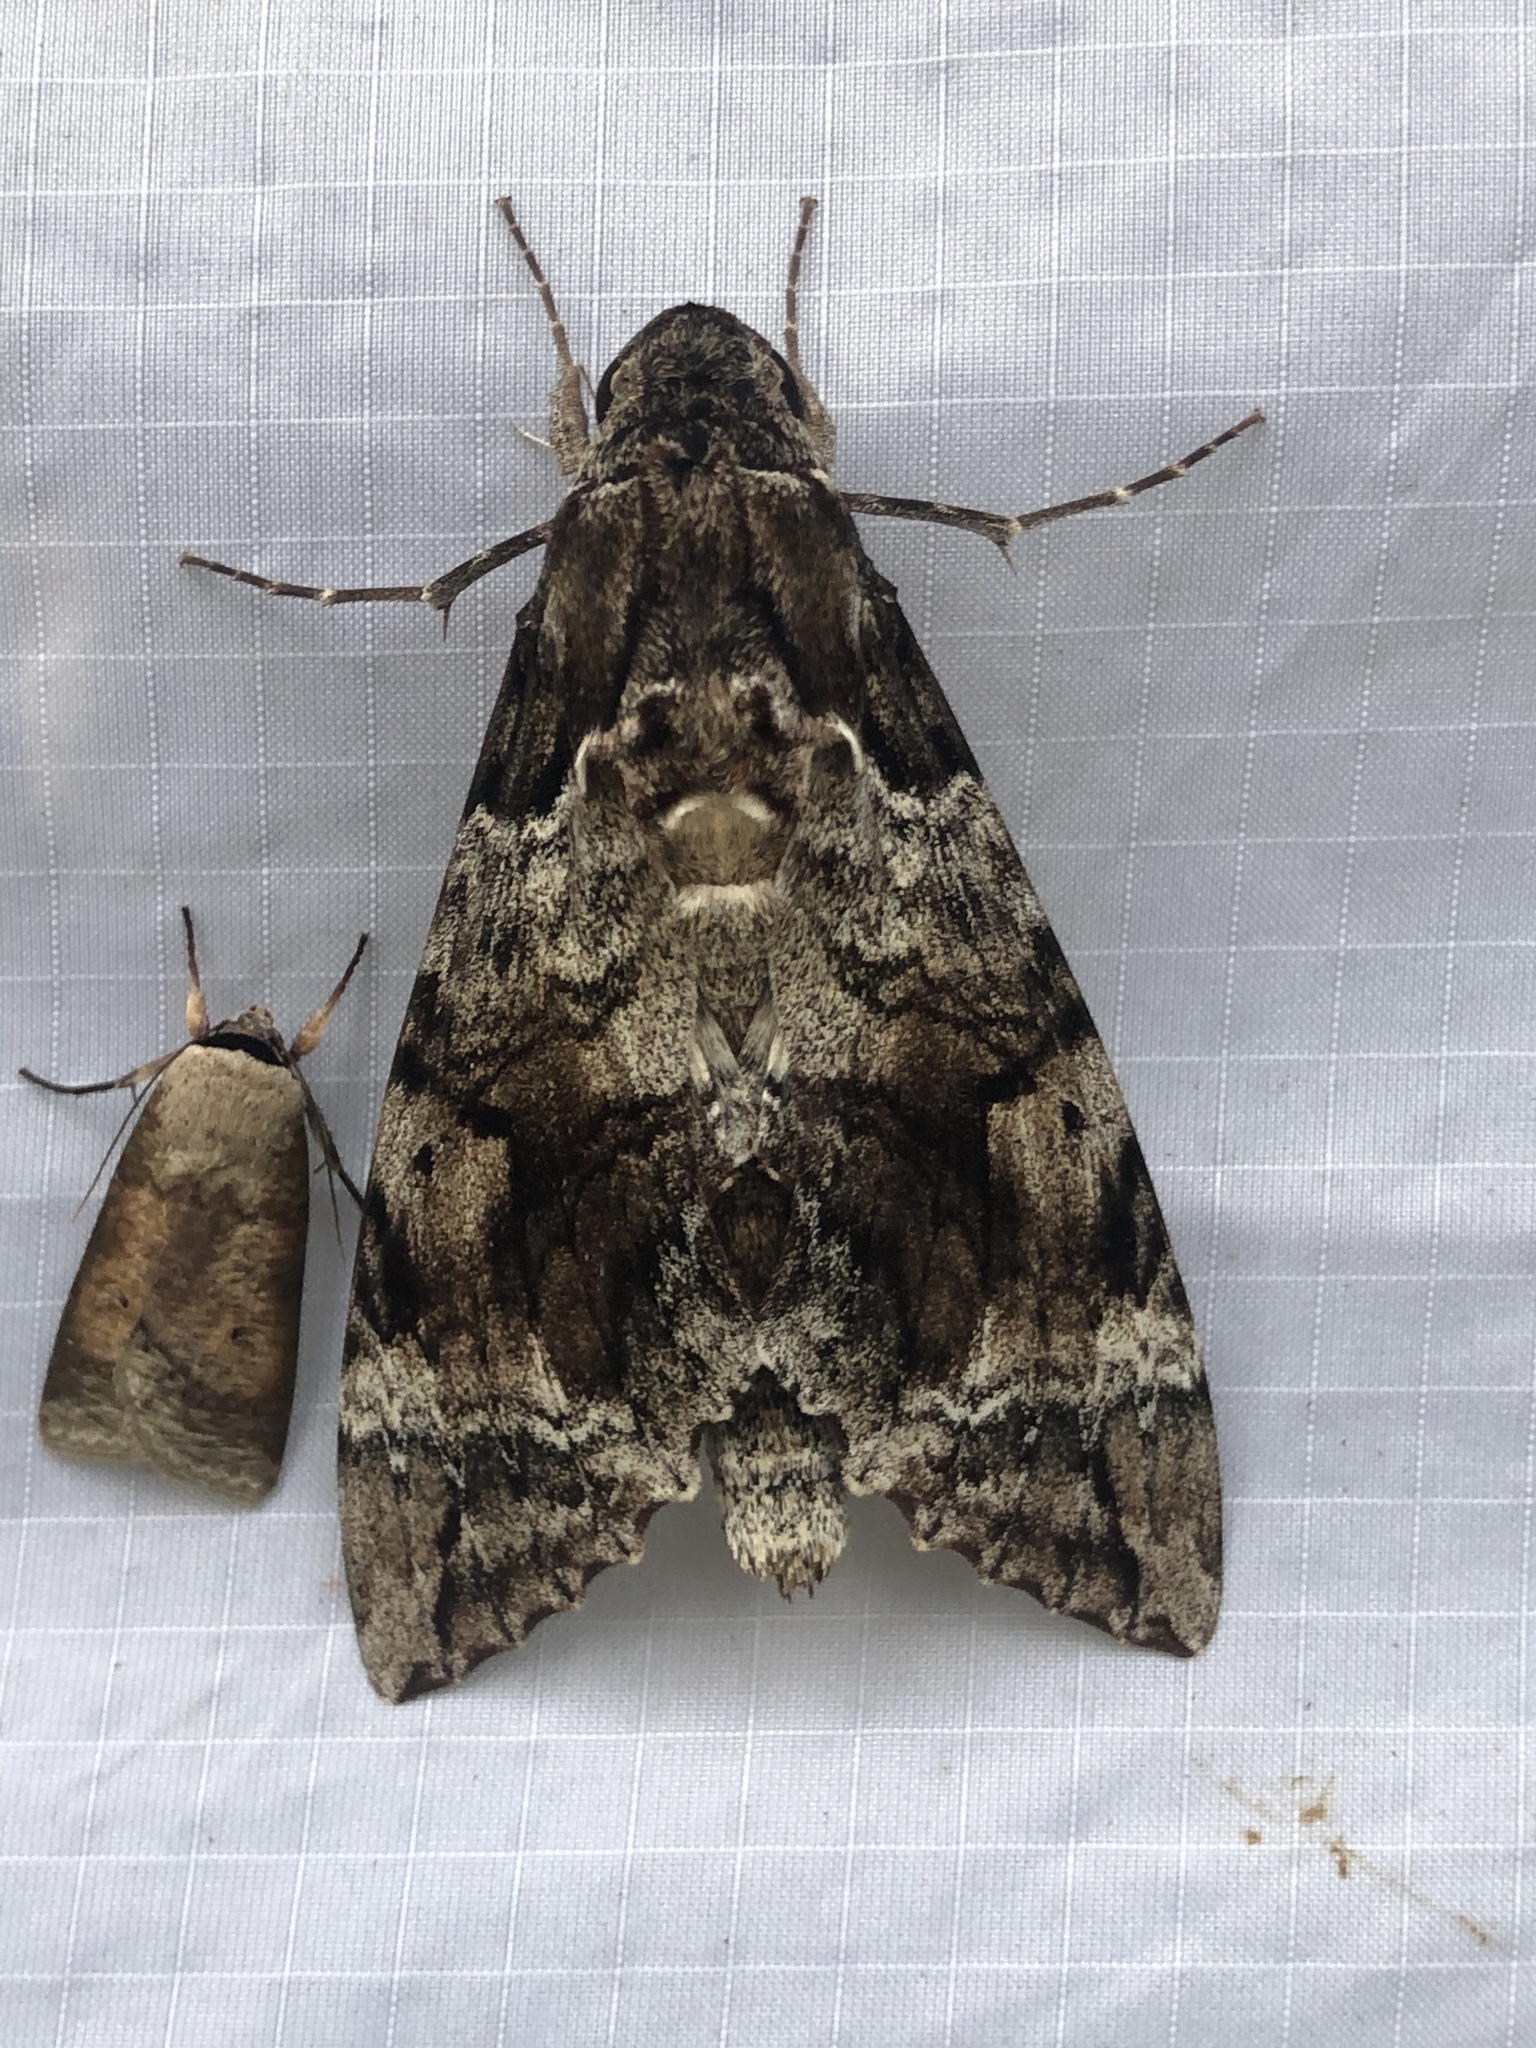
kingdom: Animalia
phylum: Arthropoda
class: Insecta
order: Lepidoptera
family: Sphingidae
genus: Pseudosphinx
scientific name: Pseudosphinx tetrio
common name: Tetrio sphinx
